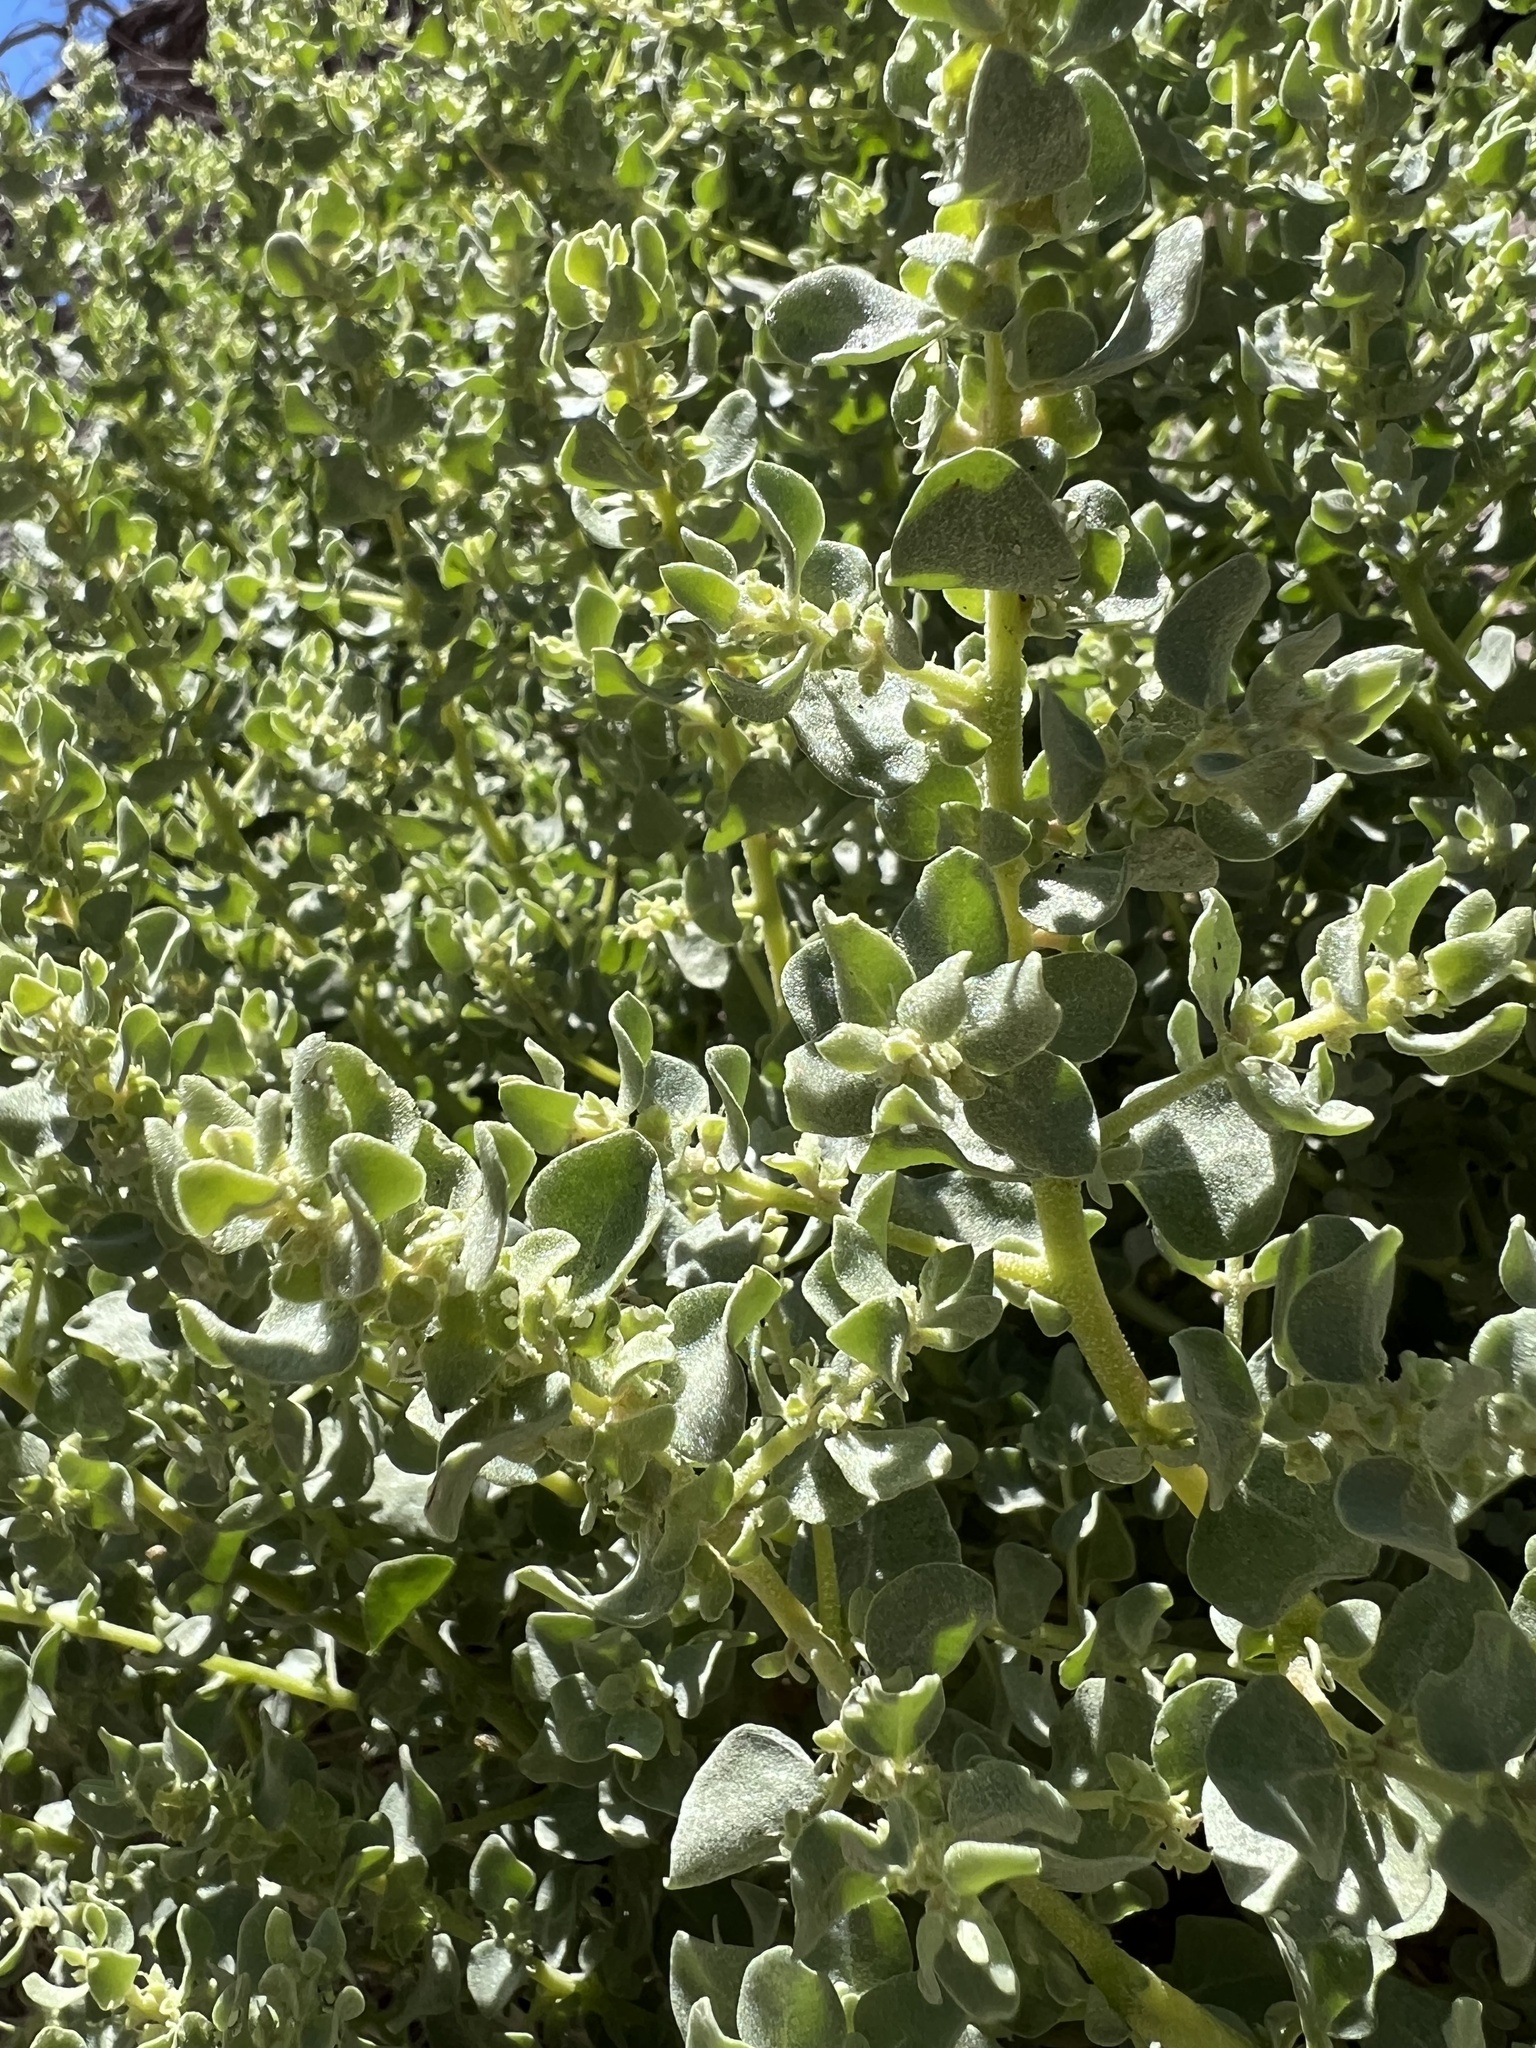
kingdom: Plantae
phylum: Tracheophyta
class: Magnoliopsida
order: Caryophyllales
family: Amaranthaceae
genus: Atriplex
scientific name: Atriplex confertifolia
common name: Shadscale
